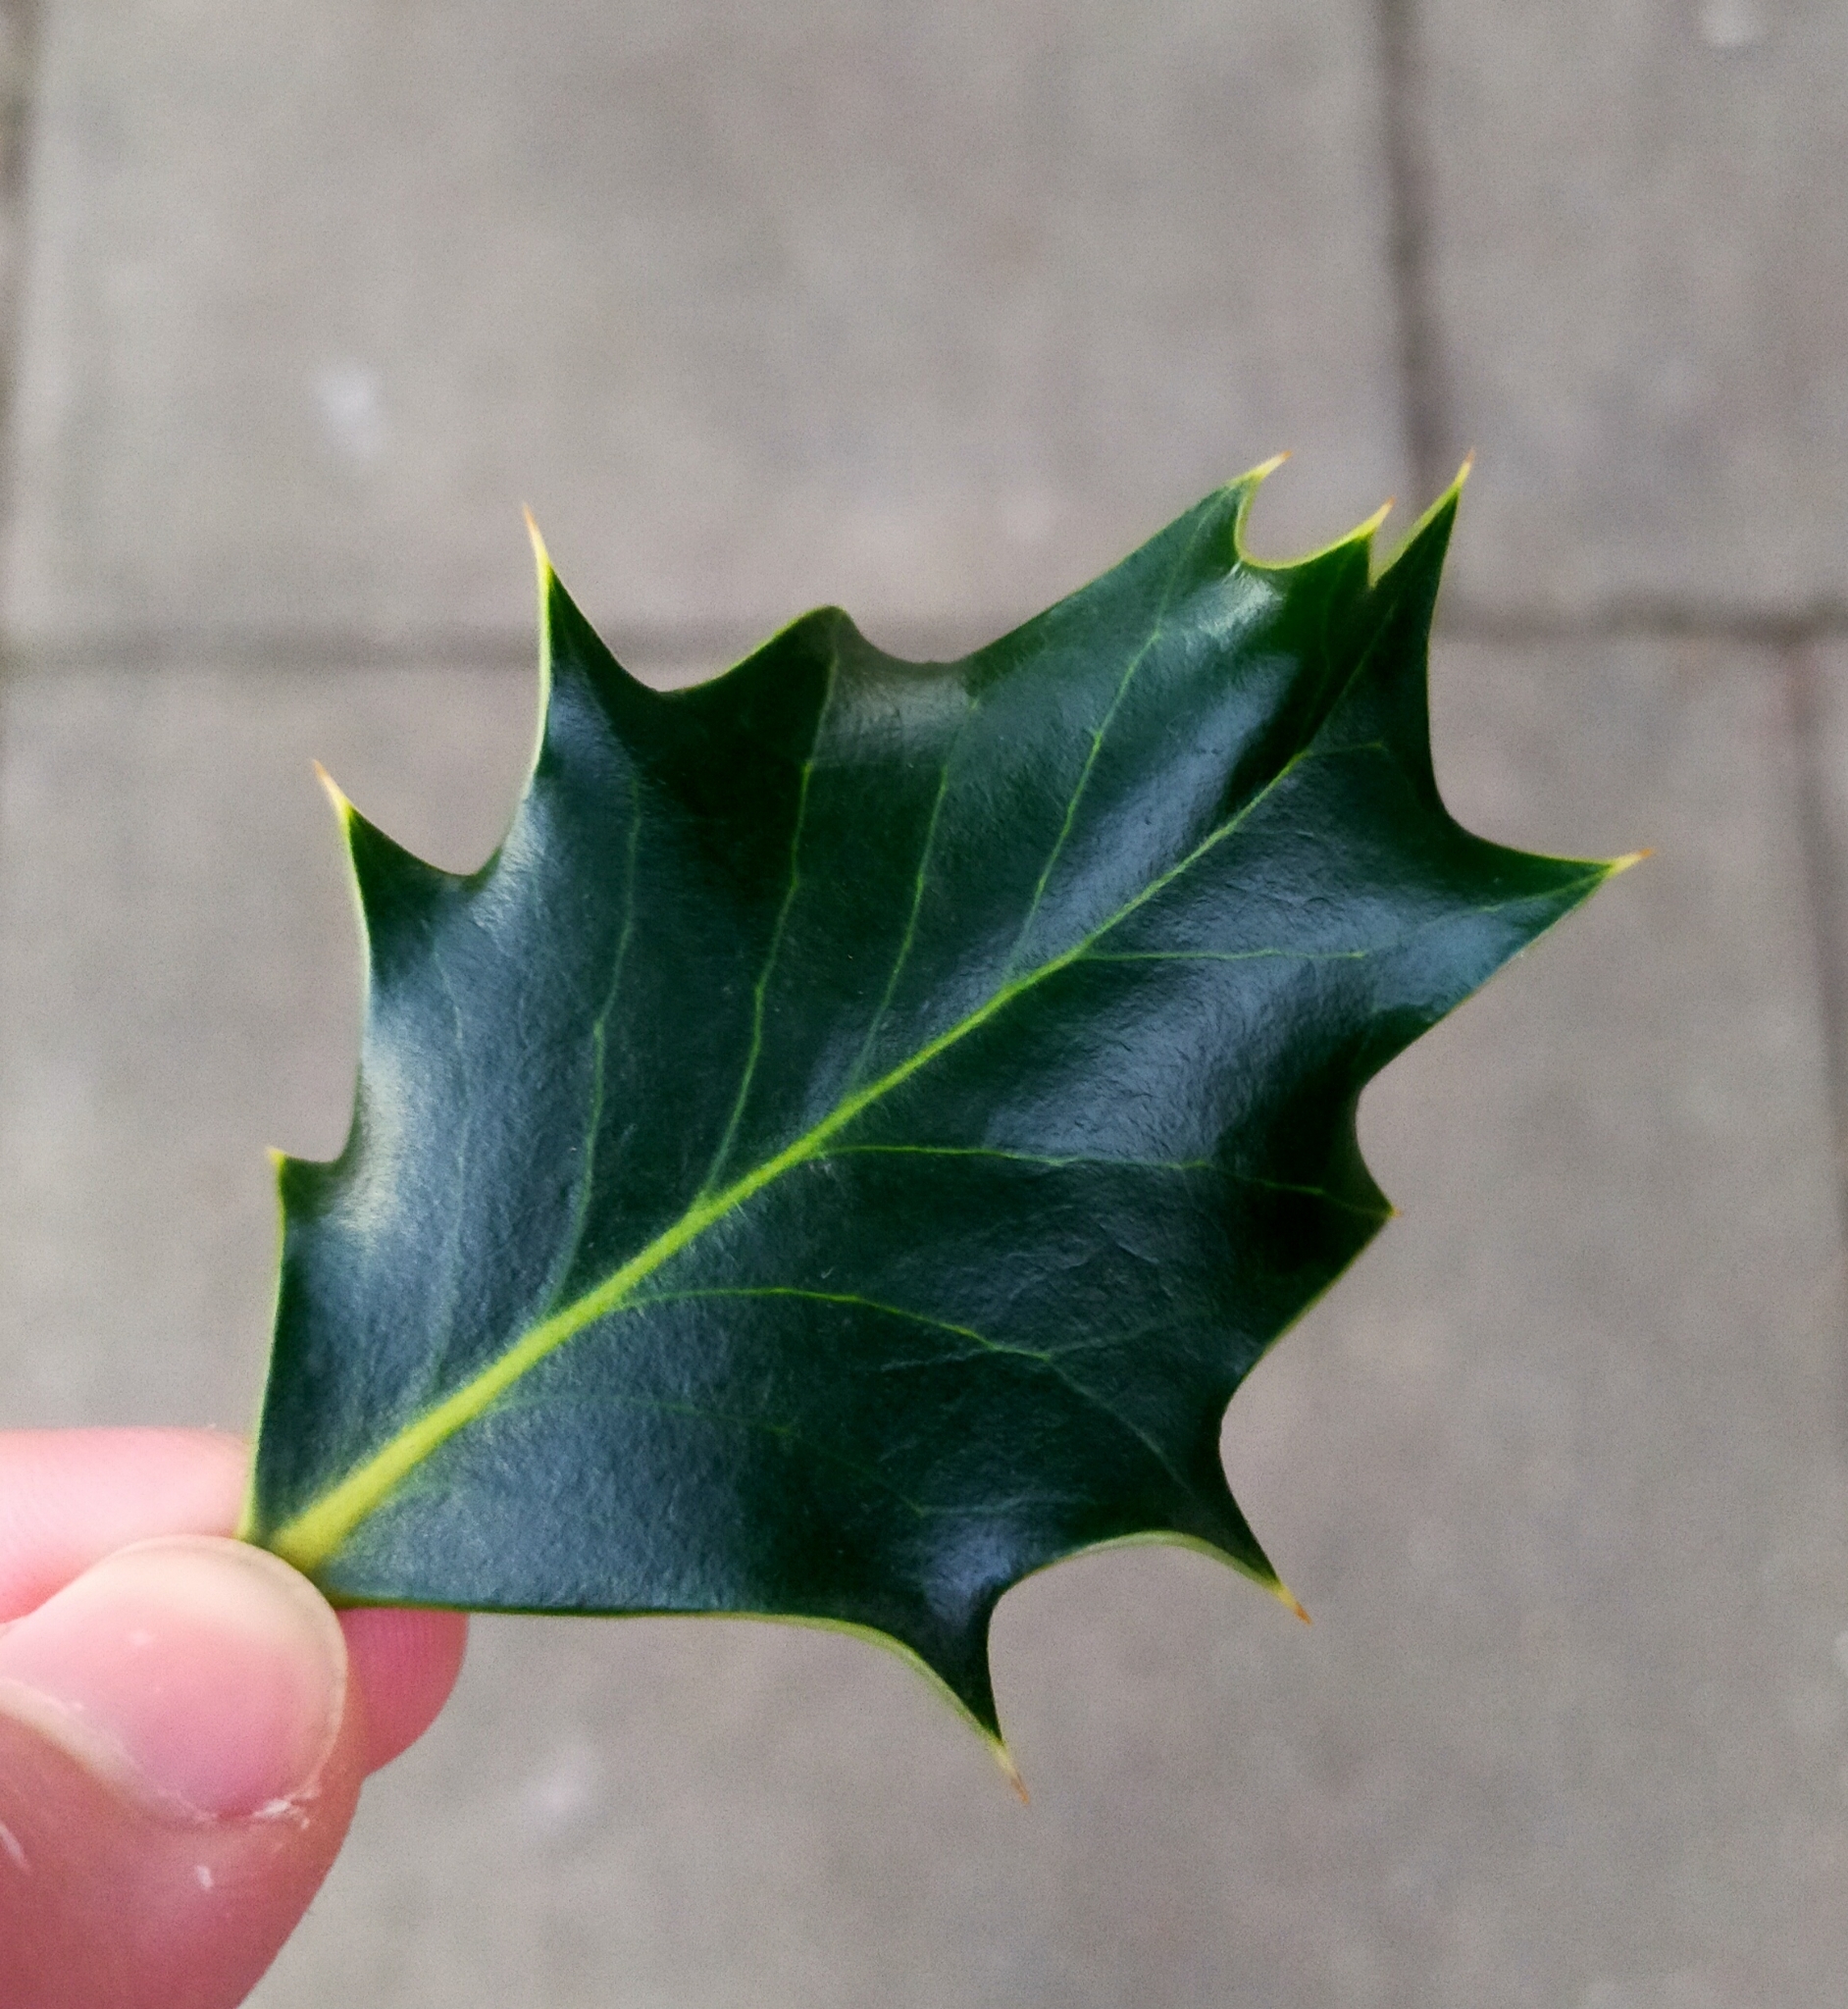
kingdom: Plantae
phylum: Tracheophyta
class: Magnoliopsida
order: Aquifoliales
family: Aquifoliaceae
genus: Ilex
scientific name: Ilex aquifolium
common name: English holly
